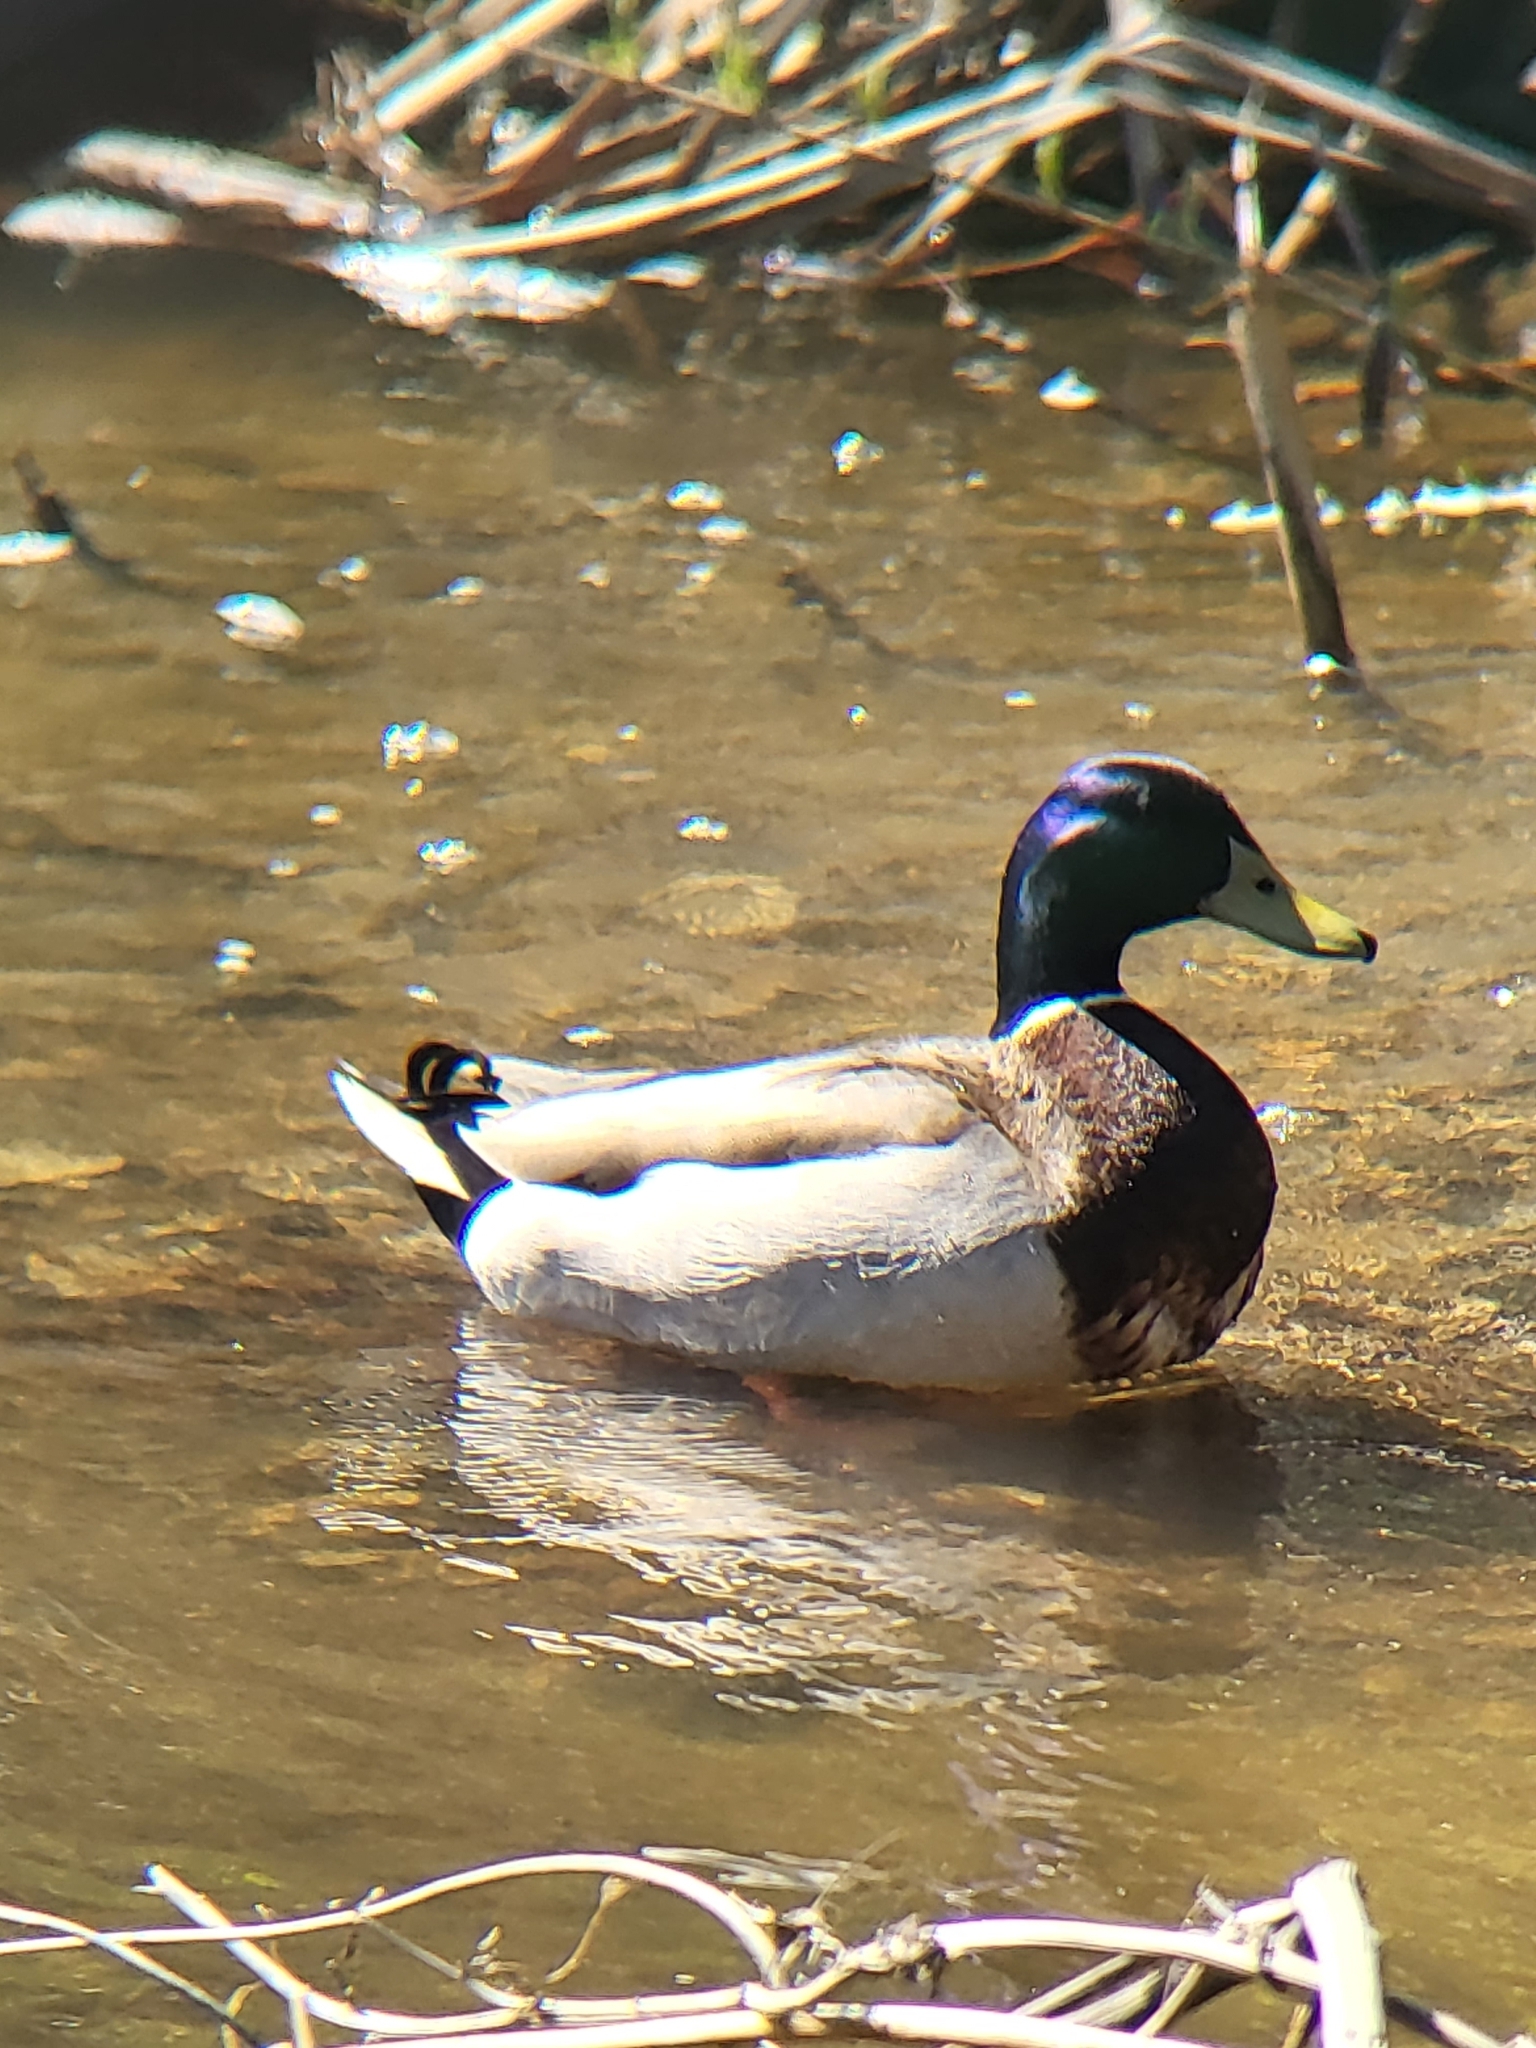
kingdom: Animalia
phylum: Chordata
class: Aves
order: Anseriformes
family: Anatidae
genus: Anas
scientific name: Anas platyrhynchos
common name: Mallard
